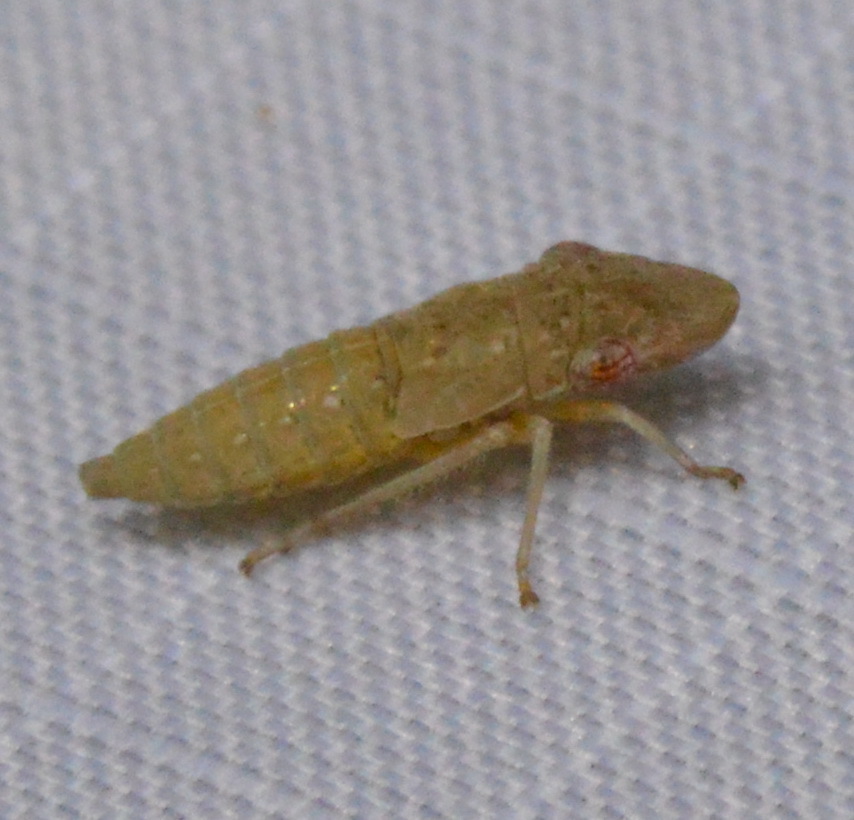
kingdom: Animalia
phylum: Arthropoda
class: Insecta
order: Hemiptera
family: Cicadellidae
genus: Homalodisca
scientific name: Homalodisca
